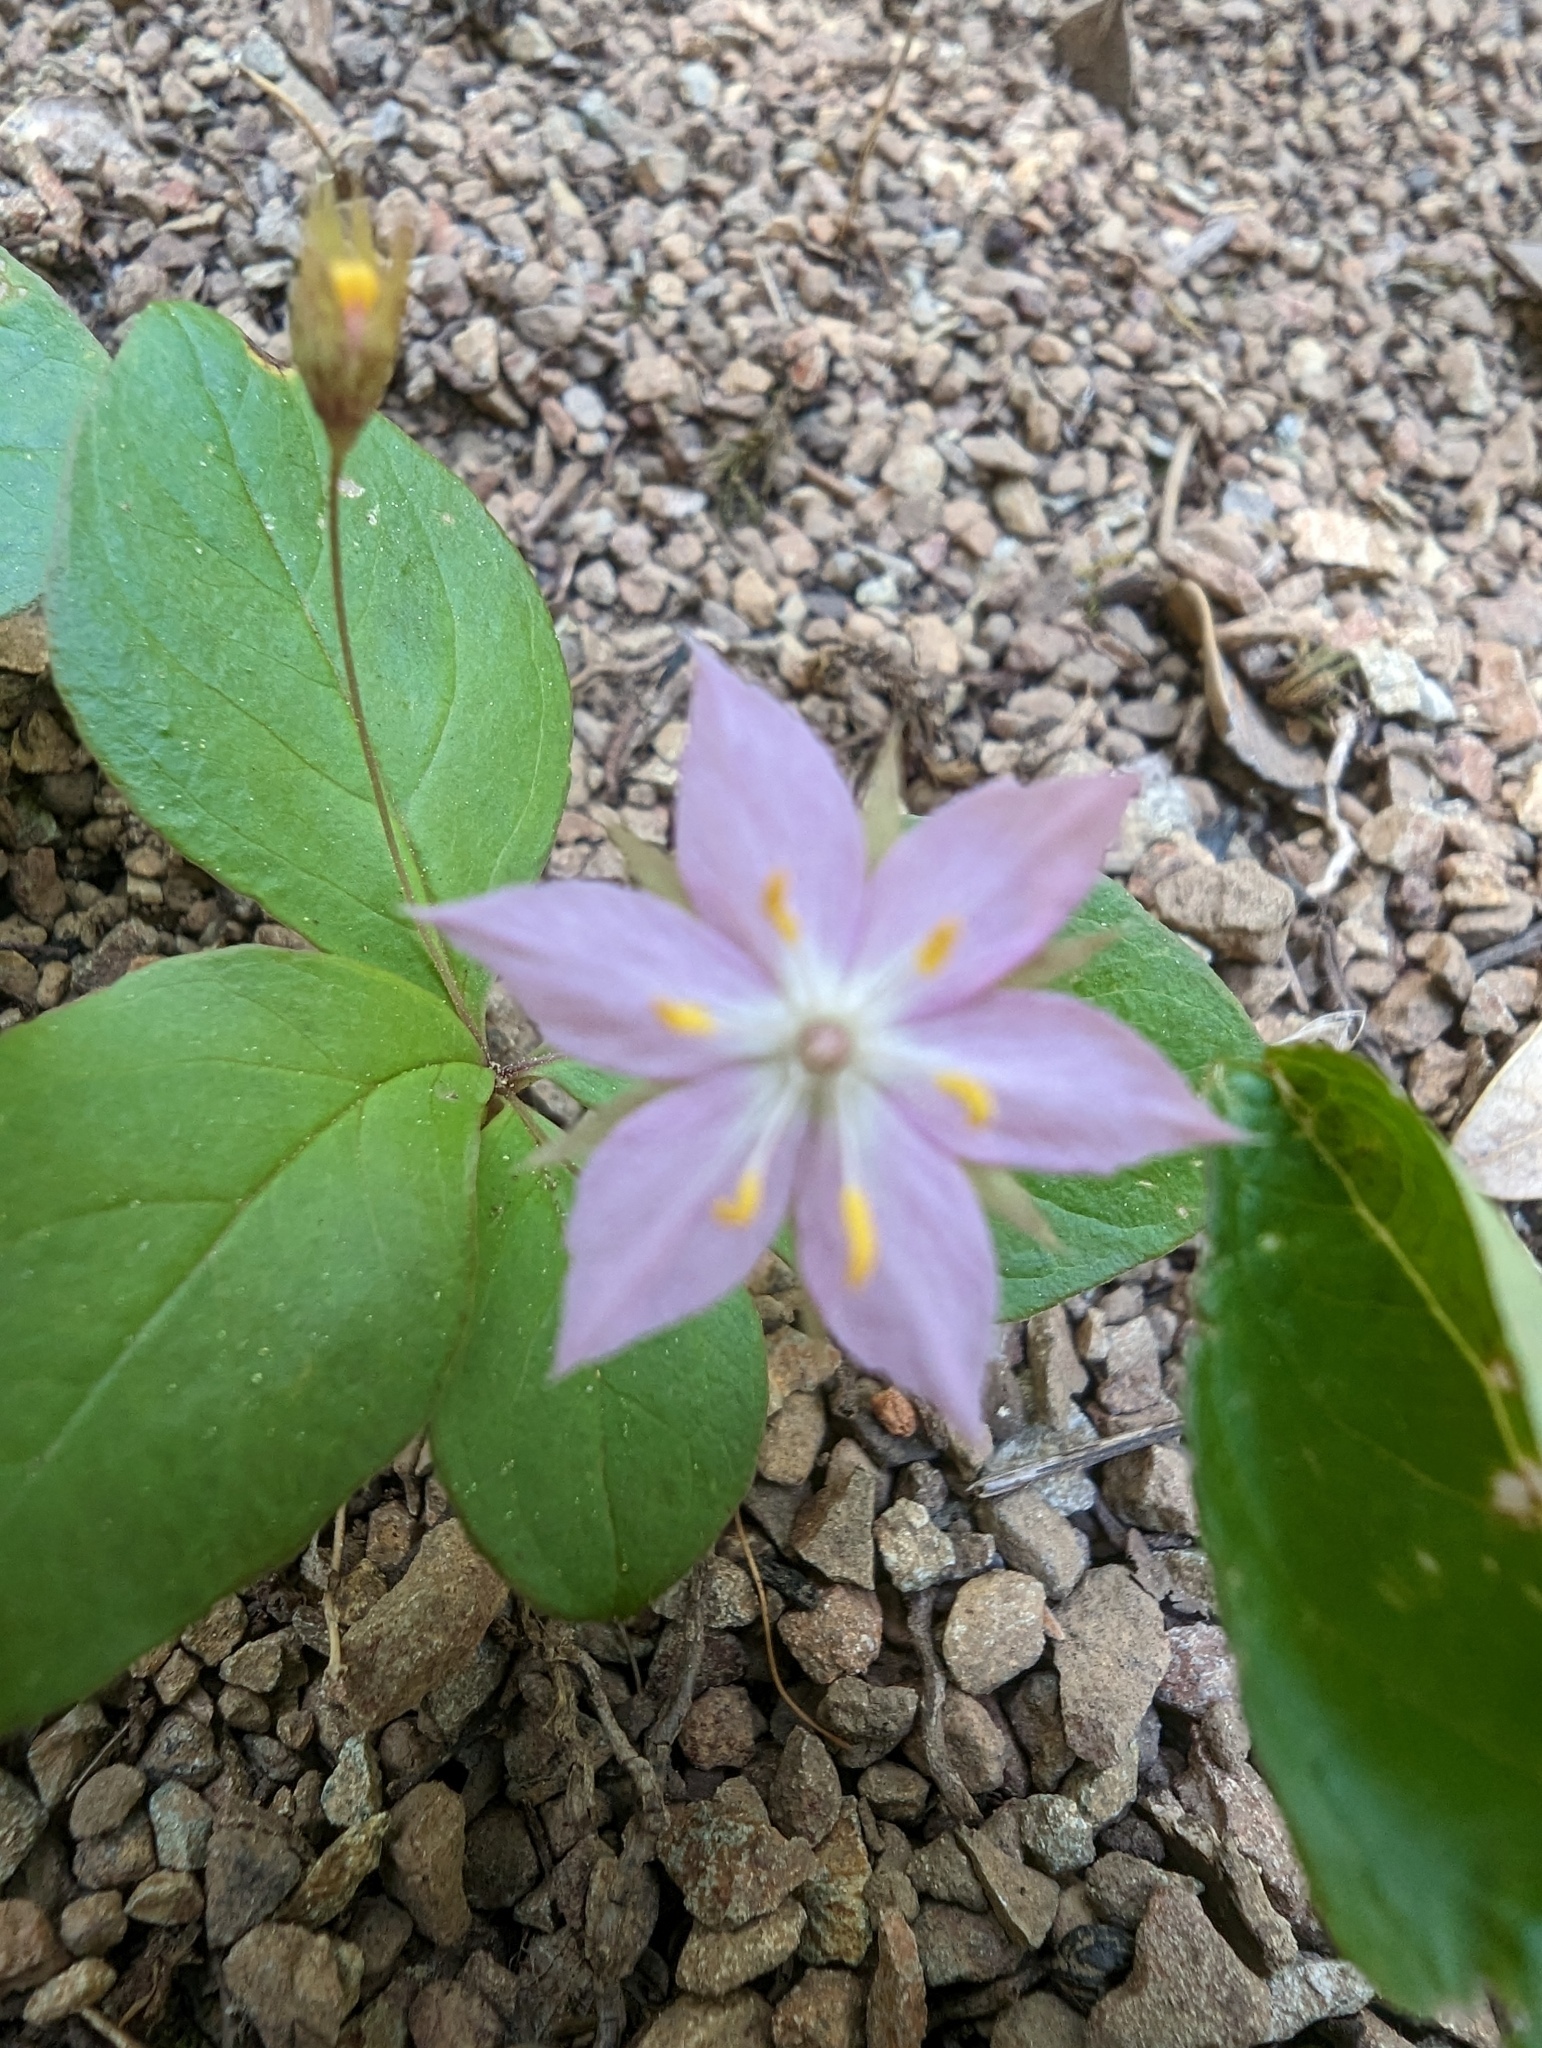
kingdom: Plantae
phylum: Tracheophyta
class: Magnoliopsida
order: Ericales
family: Primulaceae
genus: Lysimachia
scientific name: Lysimachia latifolia
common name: Pacific starflower
